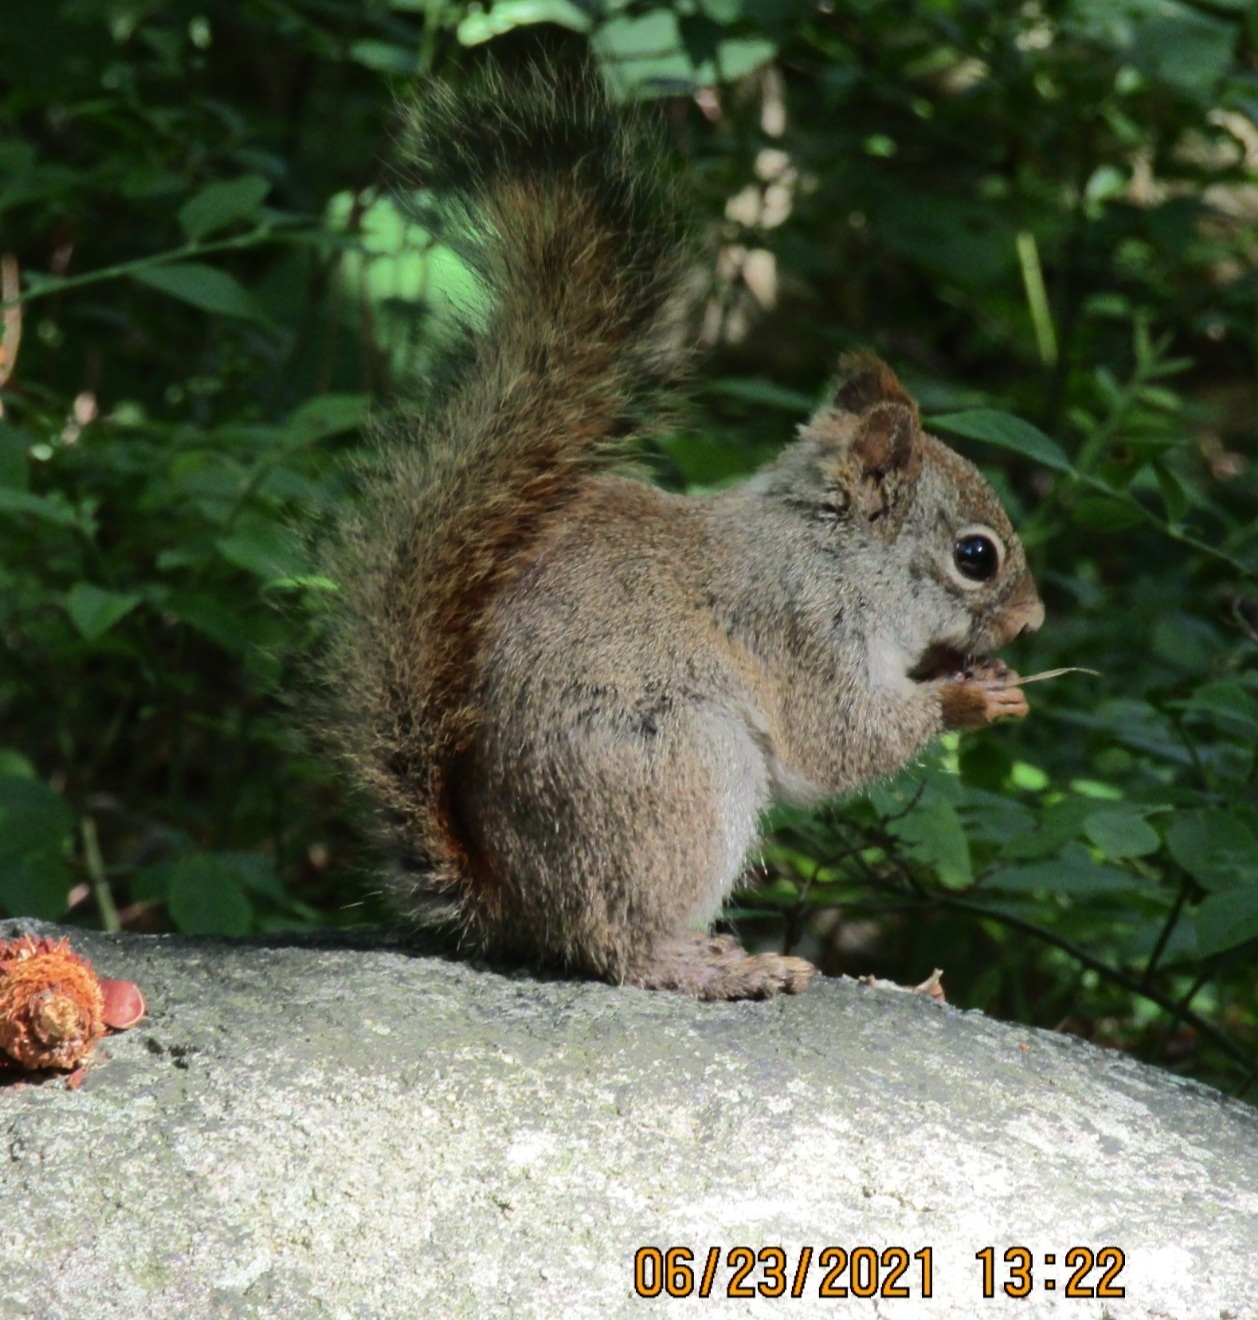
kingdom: Animalia
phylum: Chordata
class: Mammalia
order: Rodentia
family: Sciuridae
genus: Tamiasciurus
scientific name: Tamiasciurus hudsonicus
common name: Red squirrel
